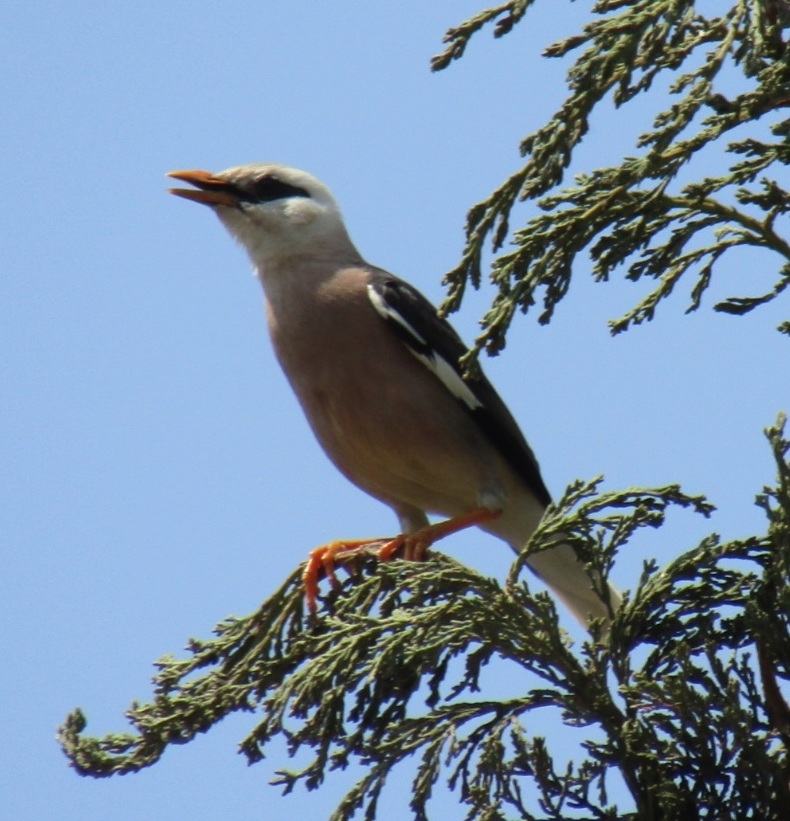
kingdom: Animalia
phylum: Chordata
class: Aves
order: Passeriformes
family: Sturnidae
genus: Acridotheres
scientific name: Acridotheres leucocephalus
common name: Vinous-breasted myna
